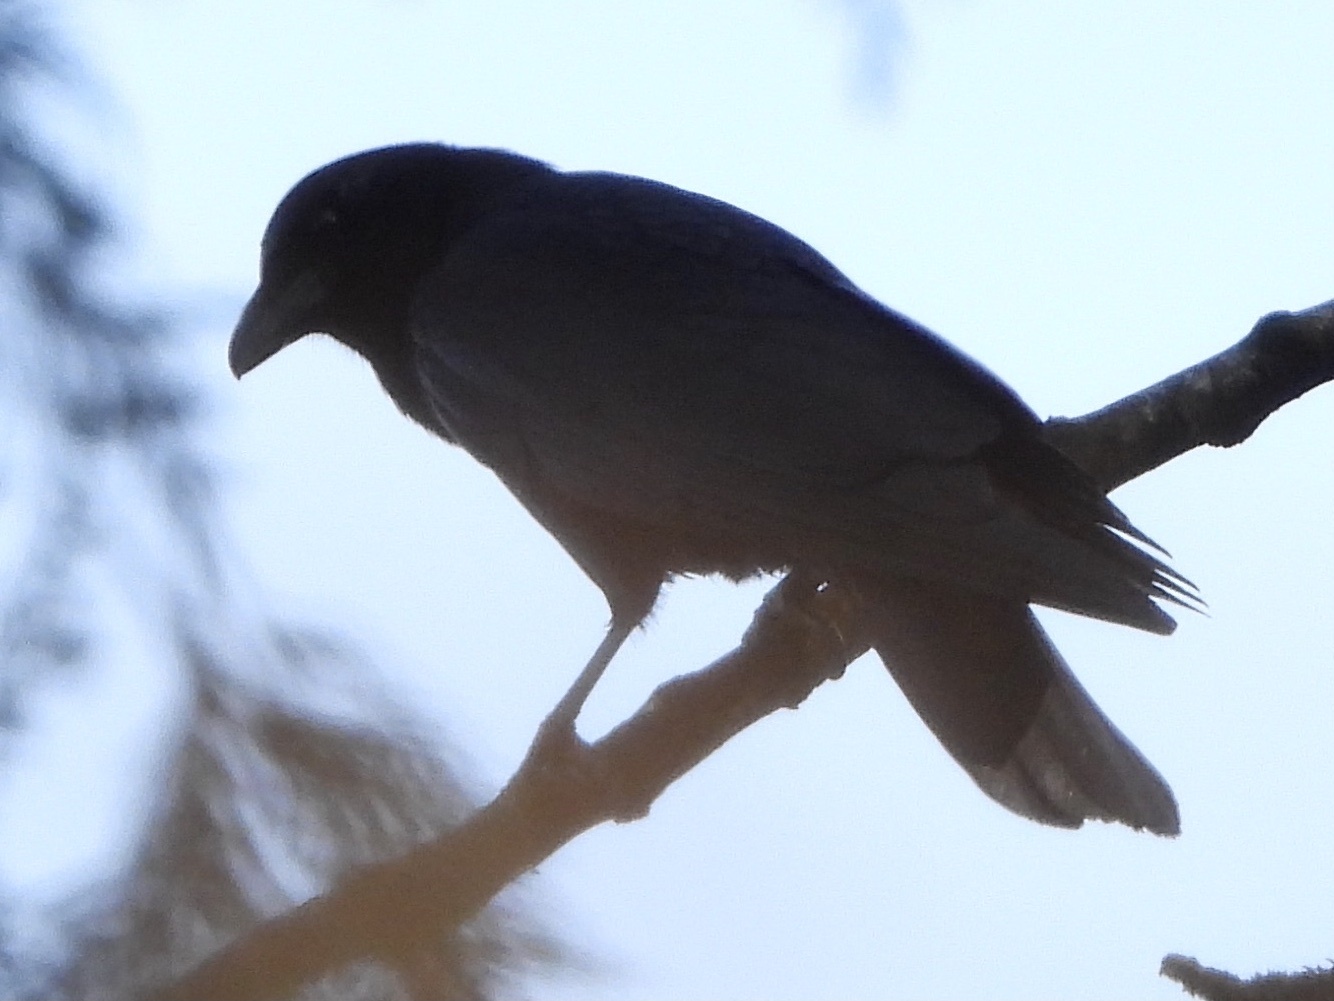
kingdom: Animalia
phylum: Chordata
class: Aves
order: Passeriformes
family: Corvidae
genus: Corvus
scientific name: Corvus brachyrhynchos
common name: American crow
